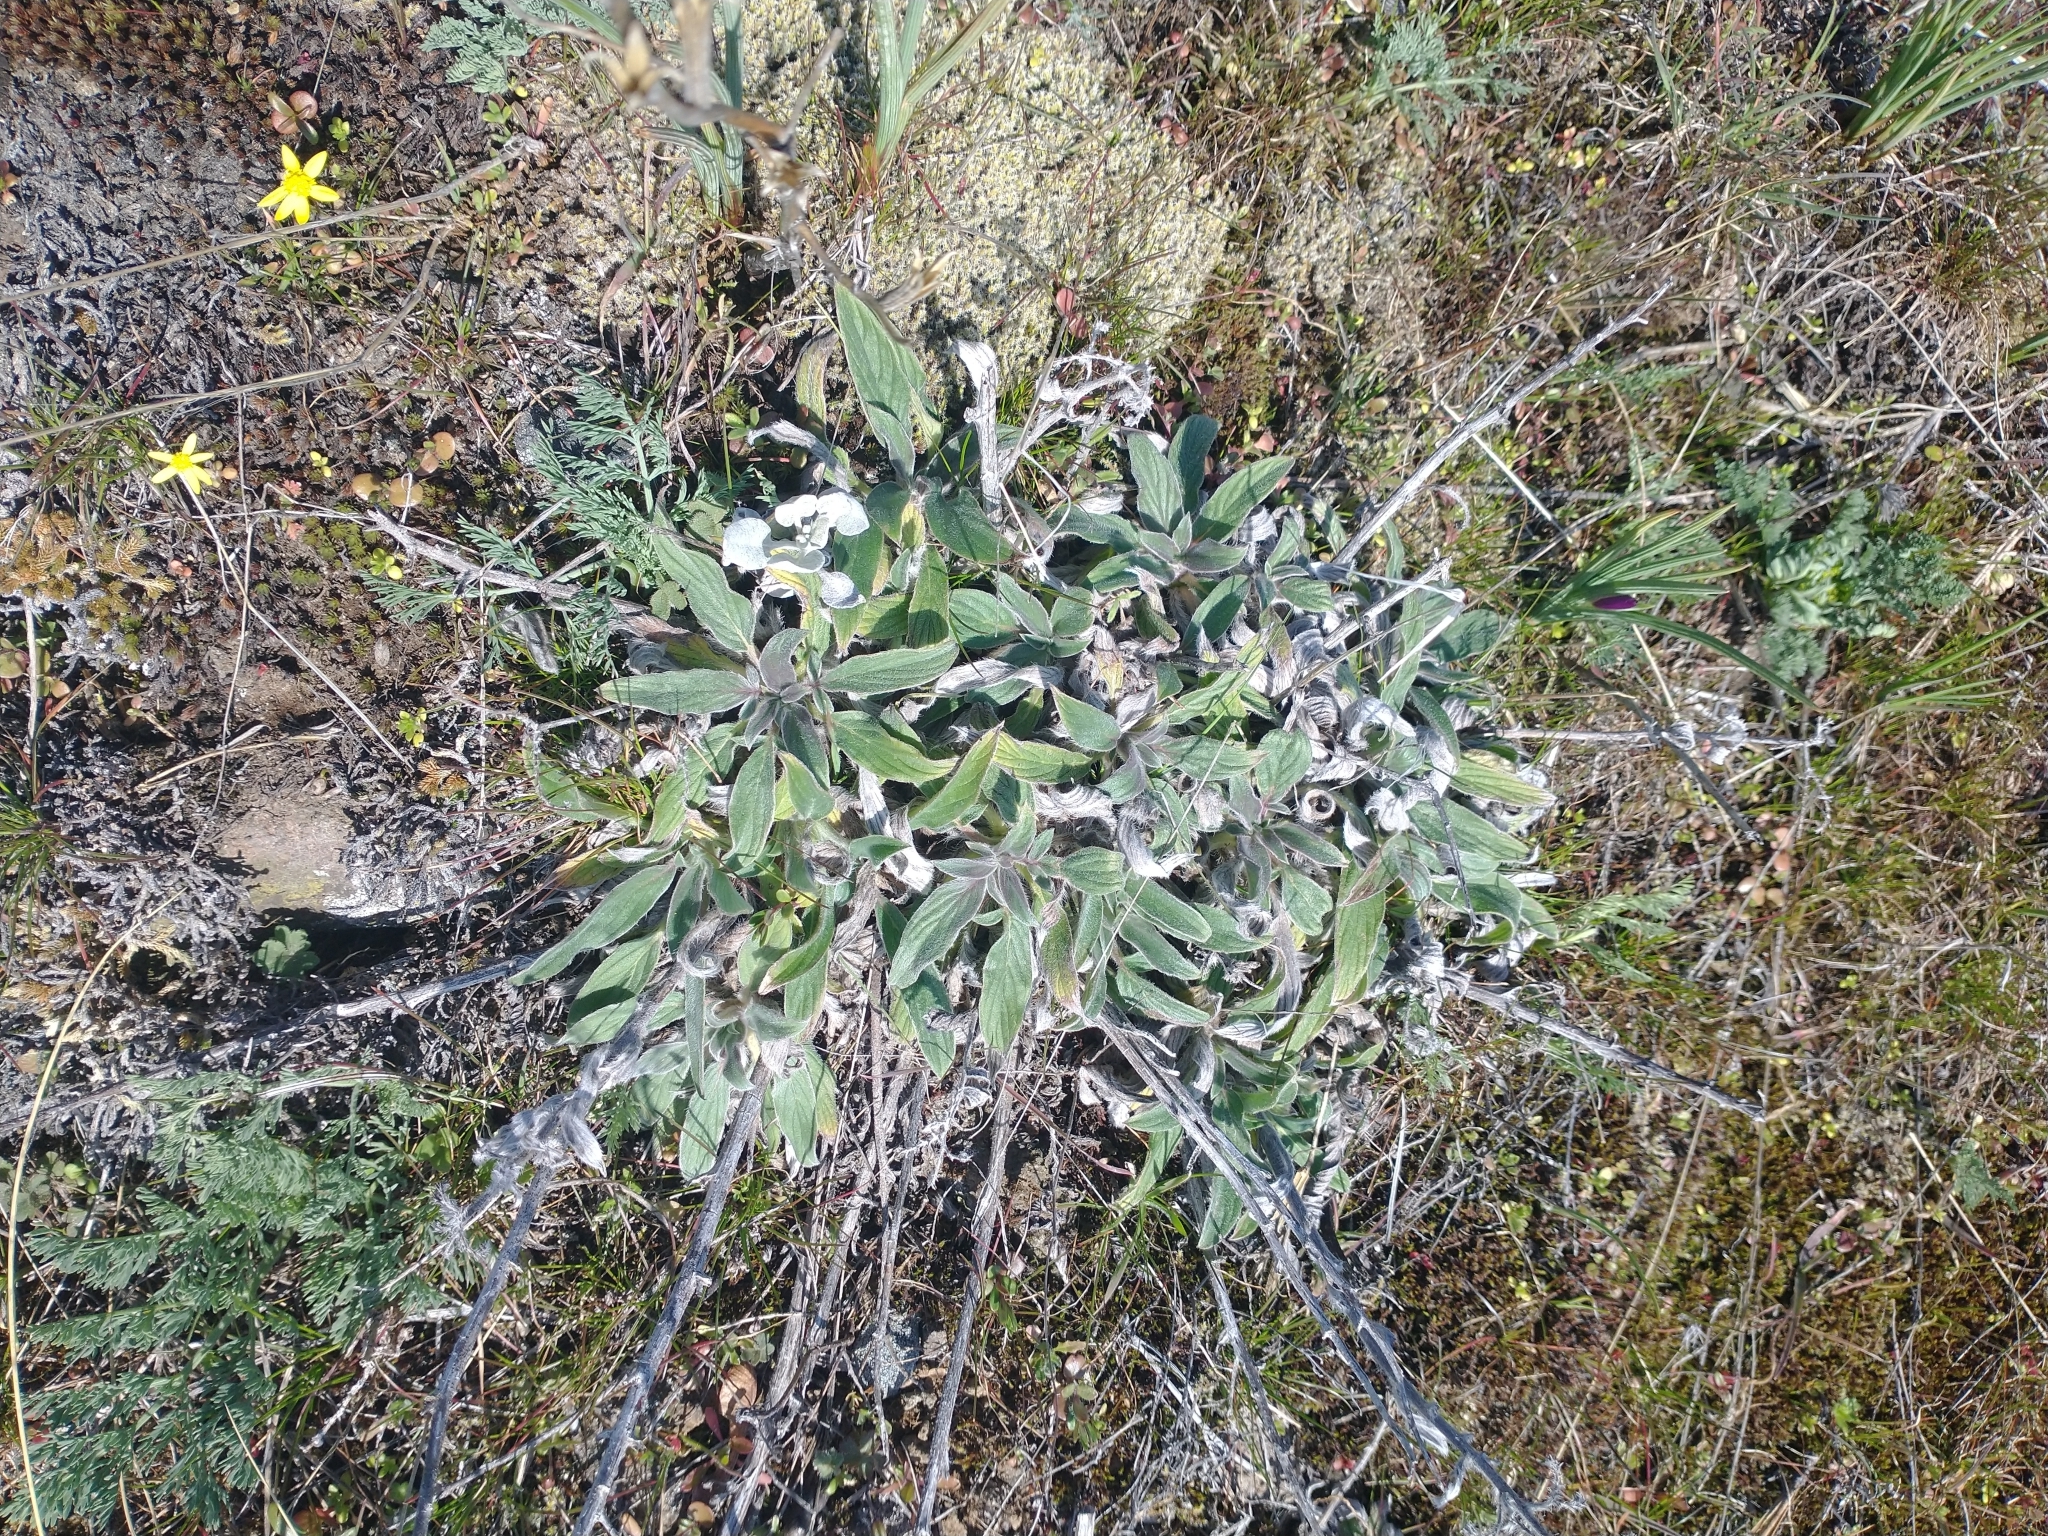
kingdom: Plantae
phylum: Tracheophyta
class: Magnoliopsida
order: Boraginales
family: Hydrophyllaceae
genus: Phacelia
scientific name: Phacelia hastata
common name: Silver-leaved phacelia
